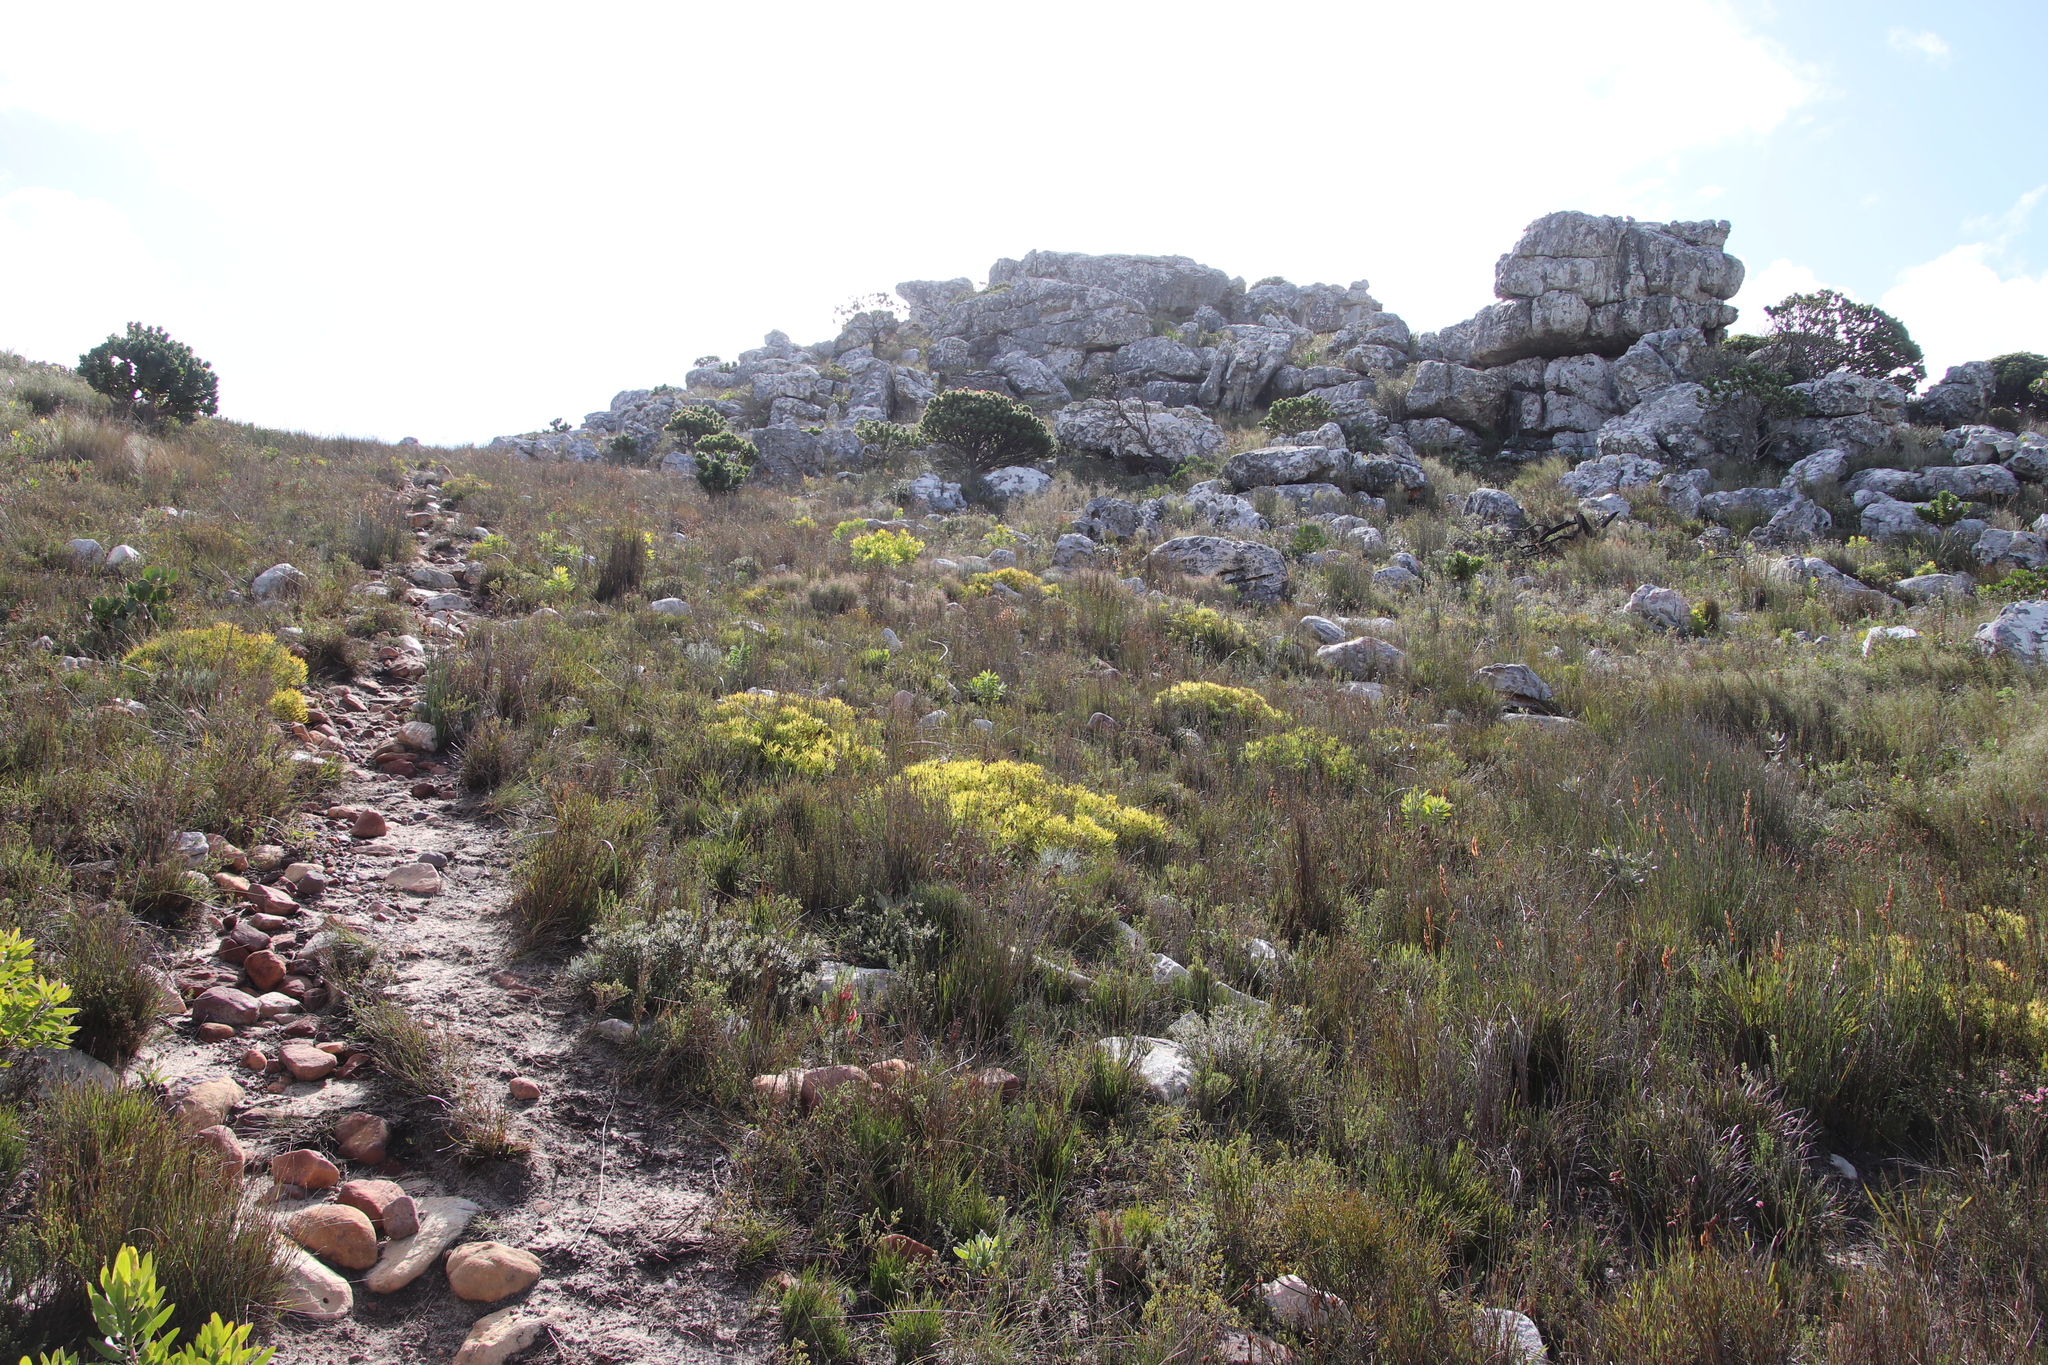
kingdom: Plantae
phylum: Tracheophyta
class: Magnoliopsida
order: Proteales
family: Proteaceae
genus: Leucadendron
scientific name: Leucadendron salignum
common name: Common sunshine conebush
